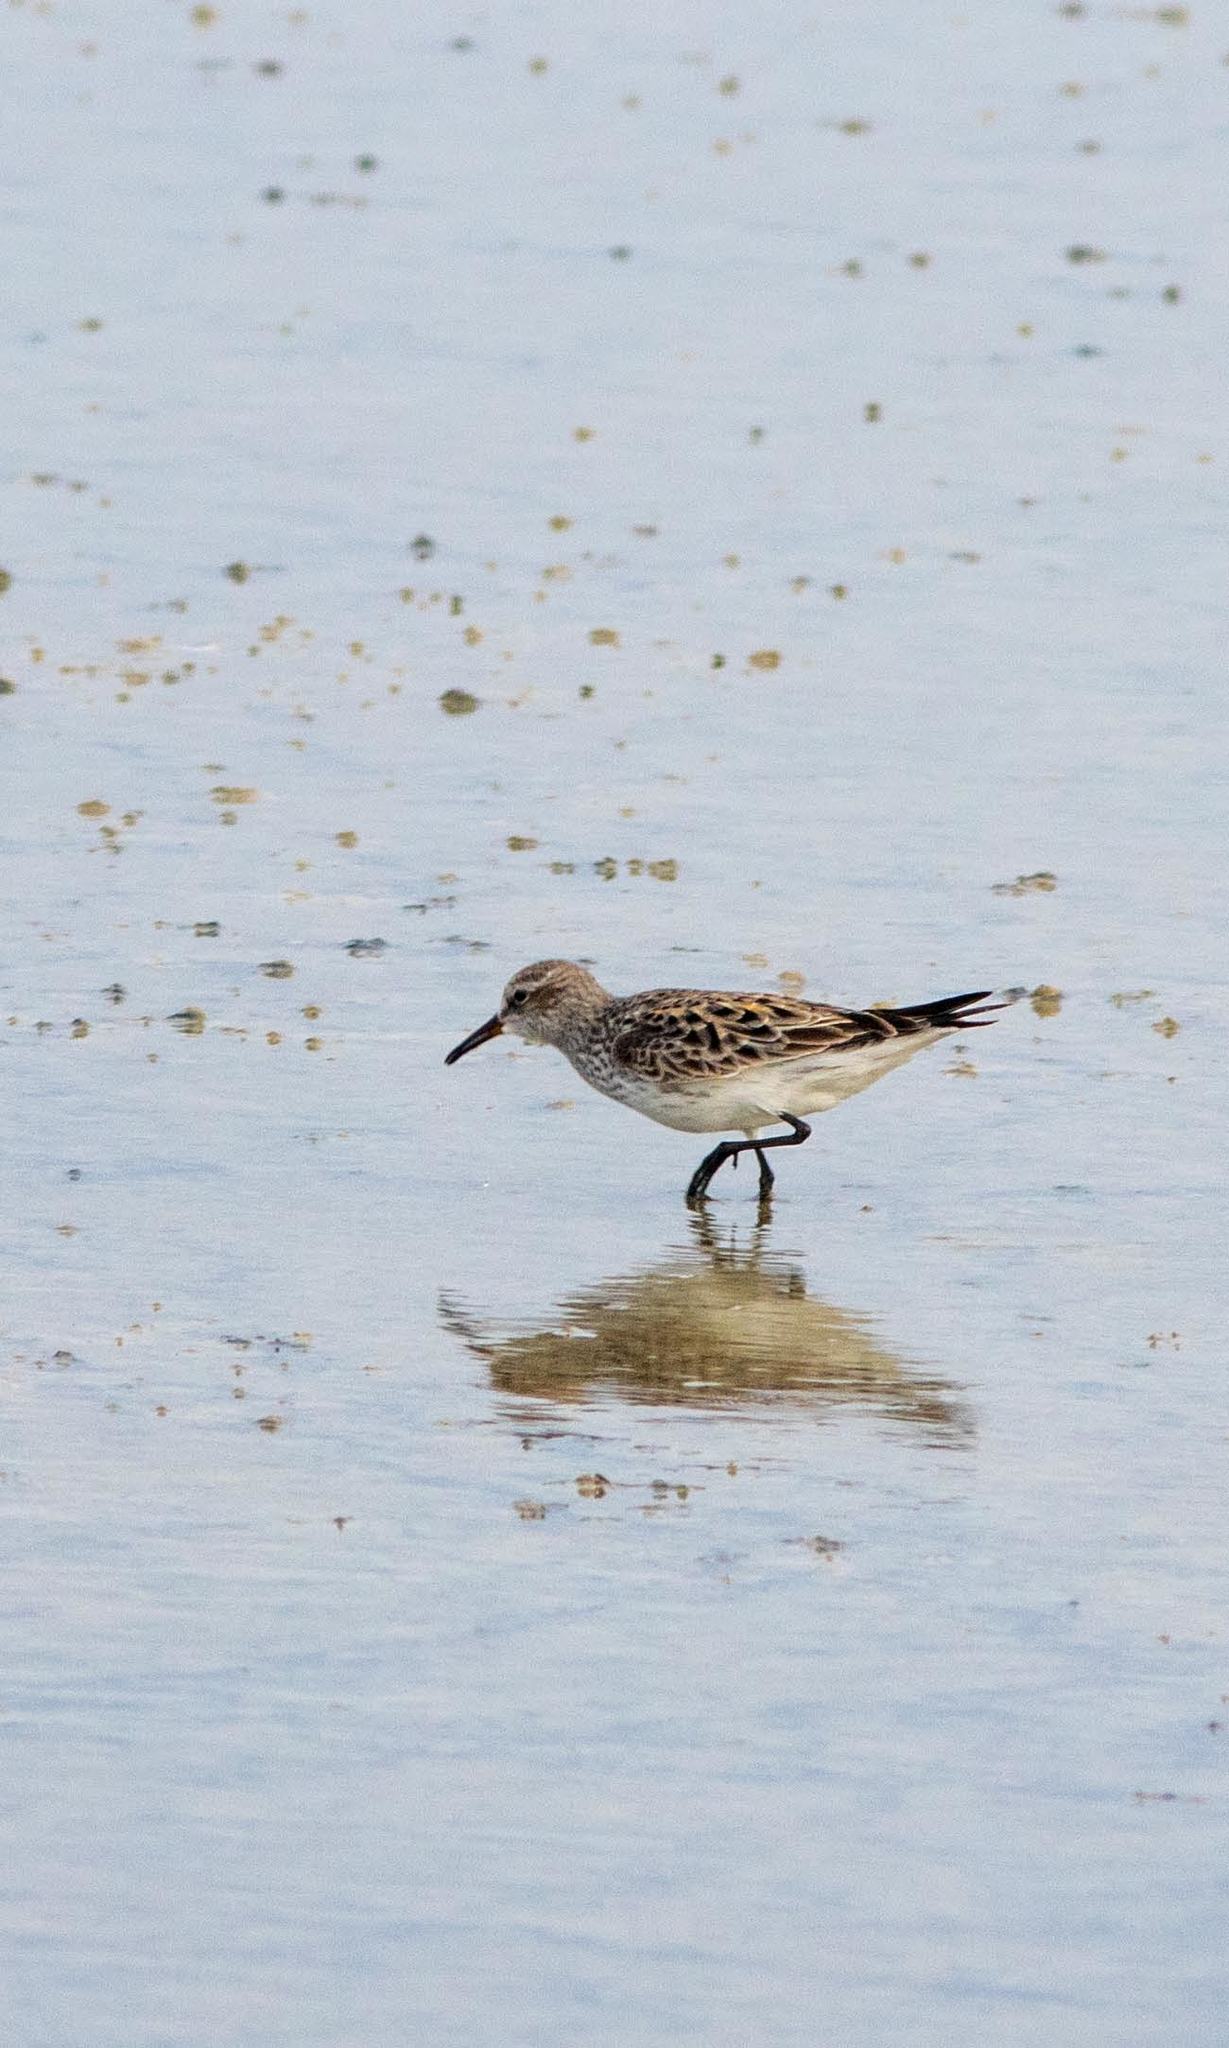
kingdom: Animalia
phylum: Chordata
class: Aves
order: Charadriiformes
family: Scolopacidae
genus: Calidris
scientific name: Calidris fuscicollis
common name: White-rumped sandpiper
